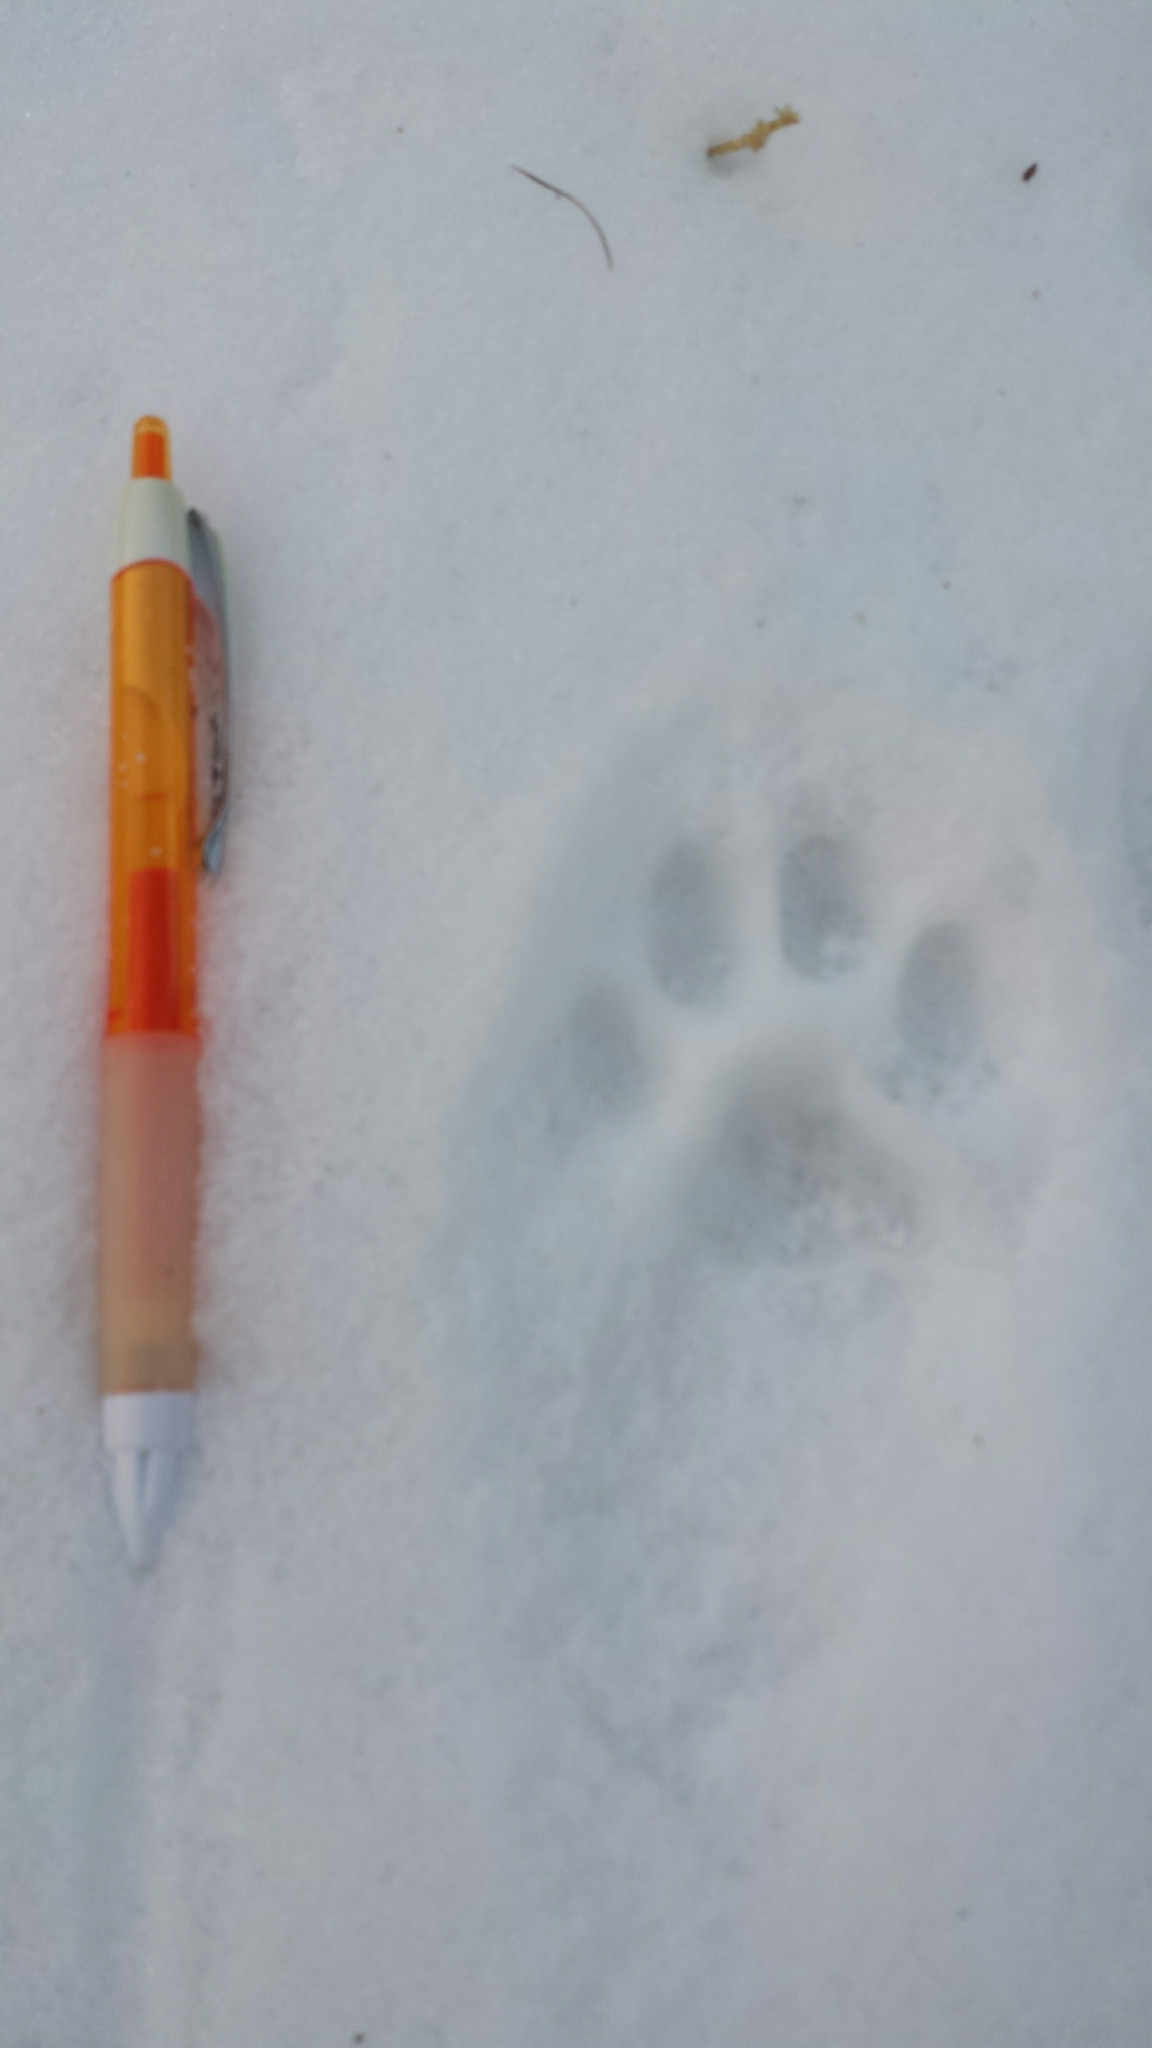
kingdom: Animalia
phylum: Chordata
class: Mammalia
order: Carnivora
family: Felidae
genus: Lynx
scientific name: Lynx rufus
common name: Bobcat
